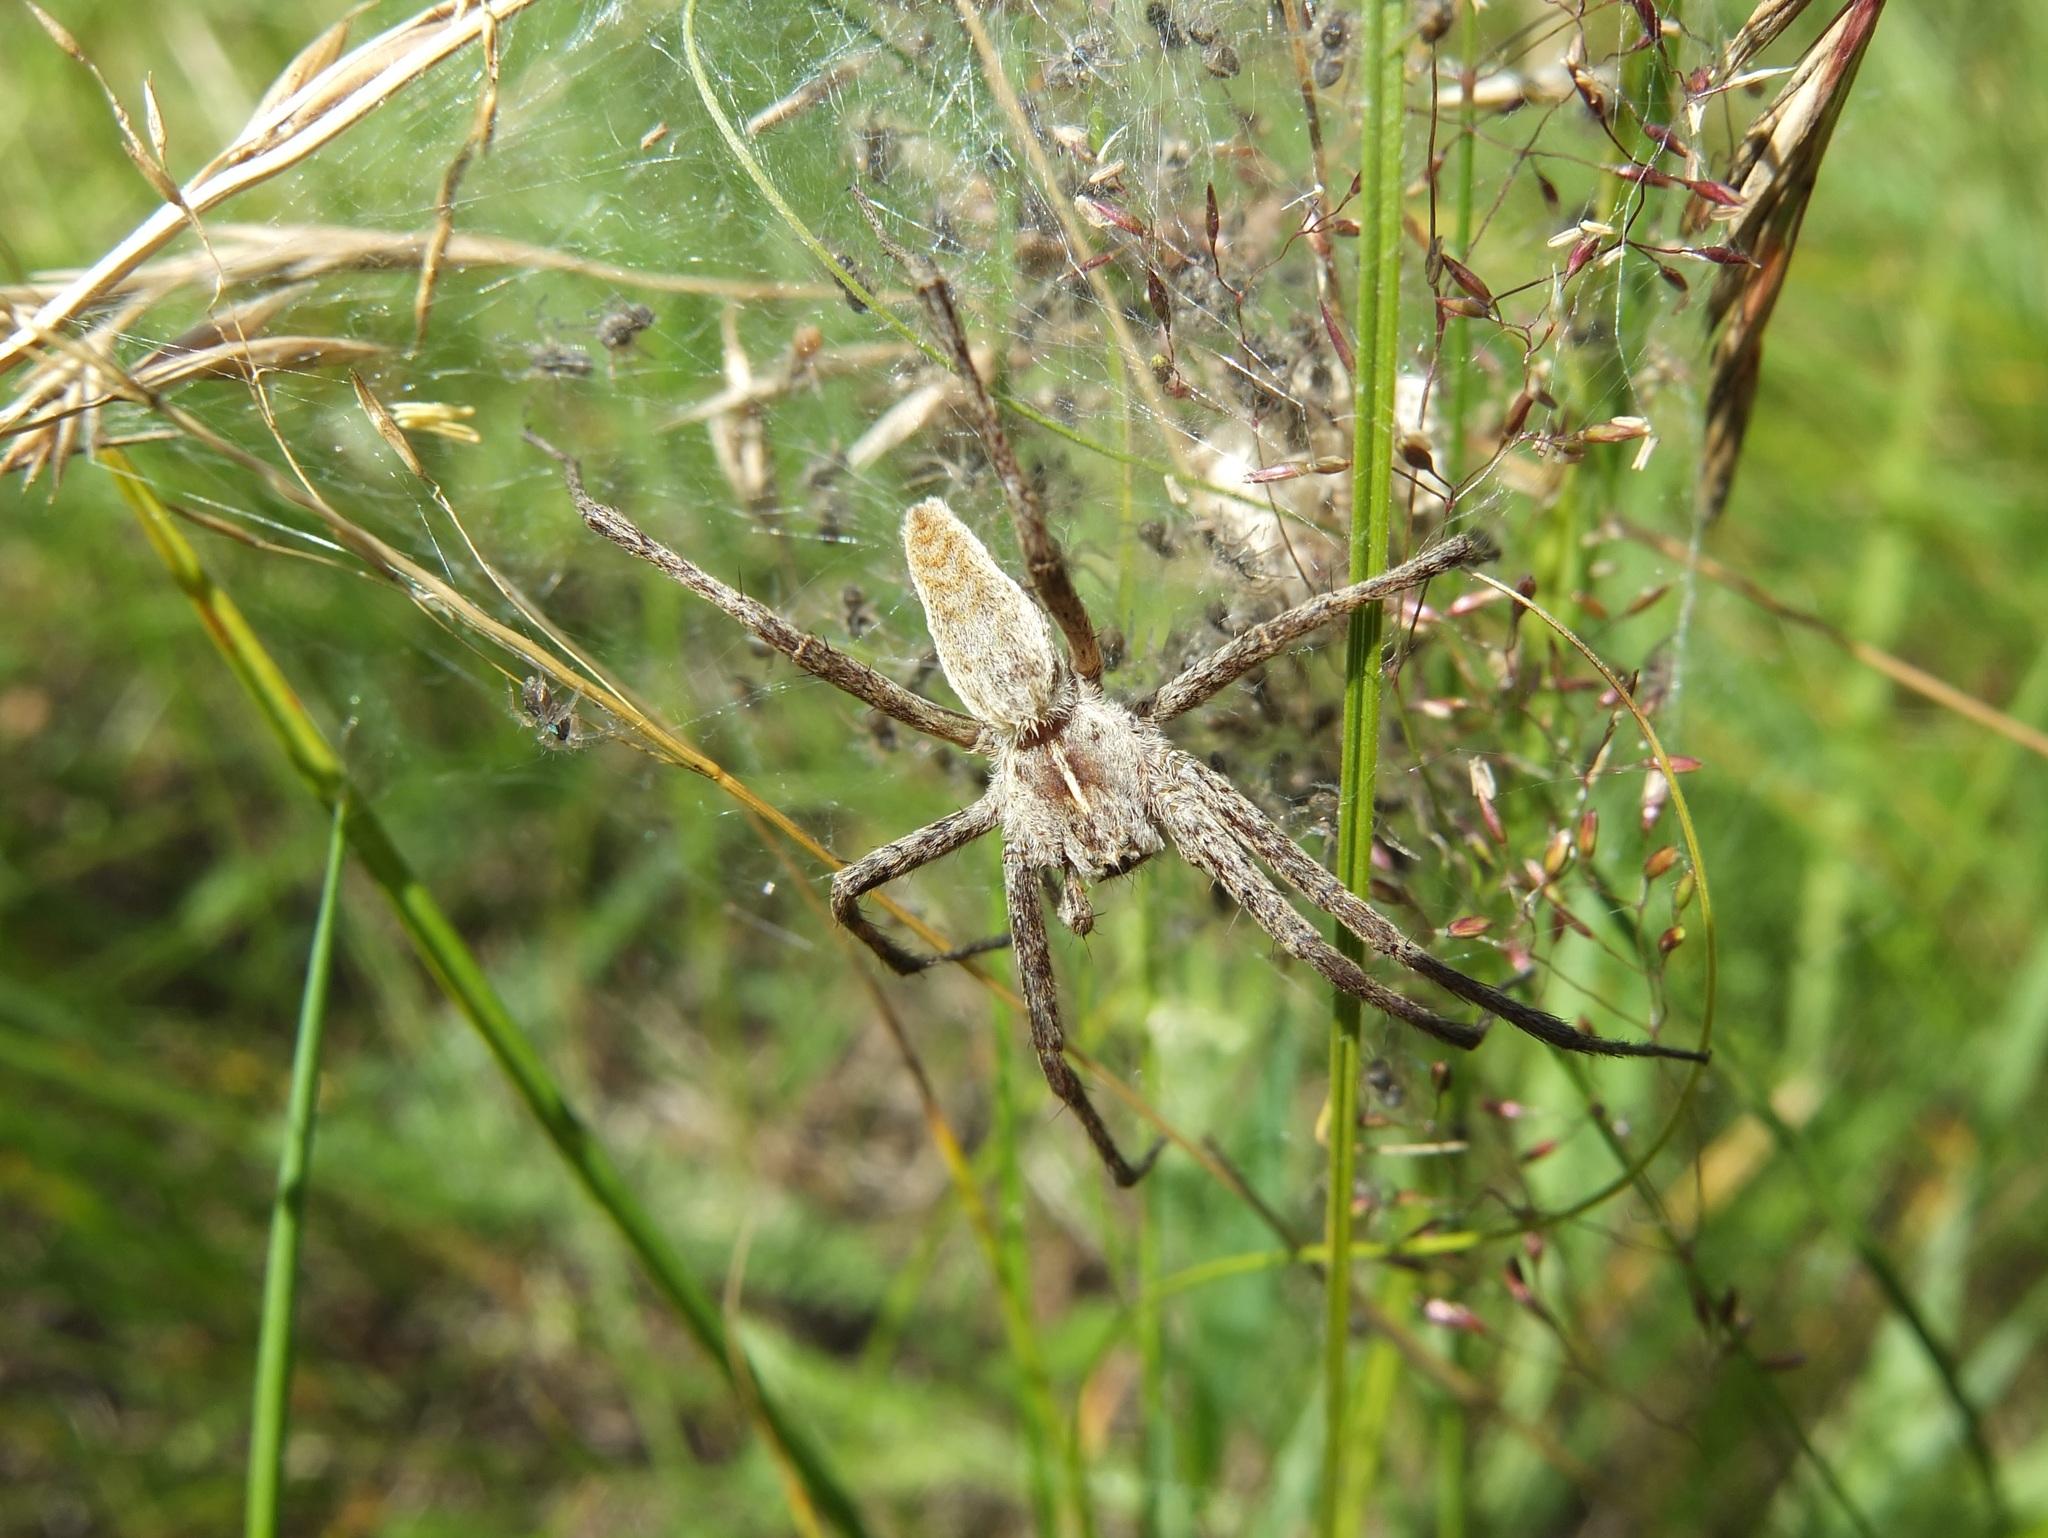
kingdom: Animalia
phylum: Arthropoda
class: Arachnida
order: Araneae
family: Pisauridae
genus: Pisaura
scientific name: Pisaura mirabilis
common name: Tent spider
